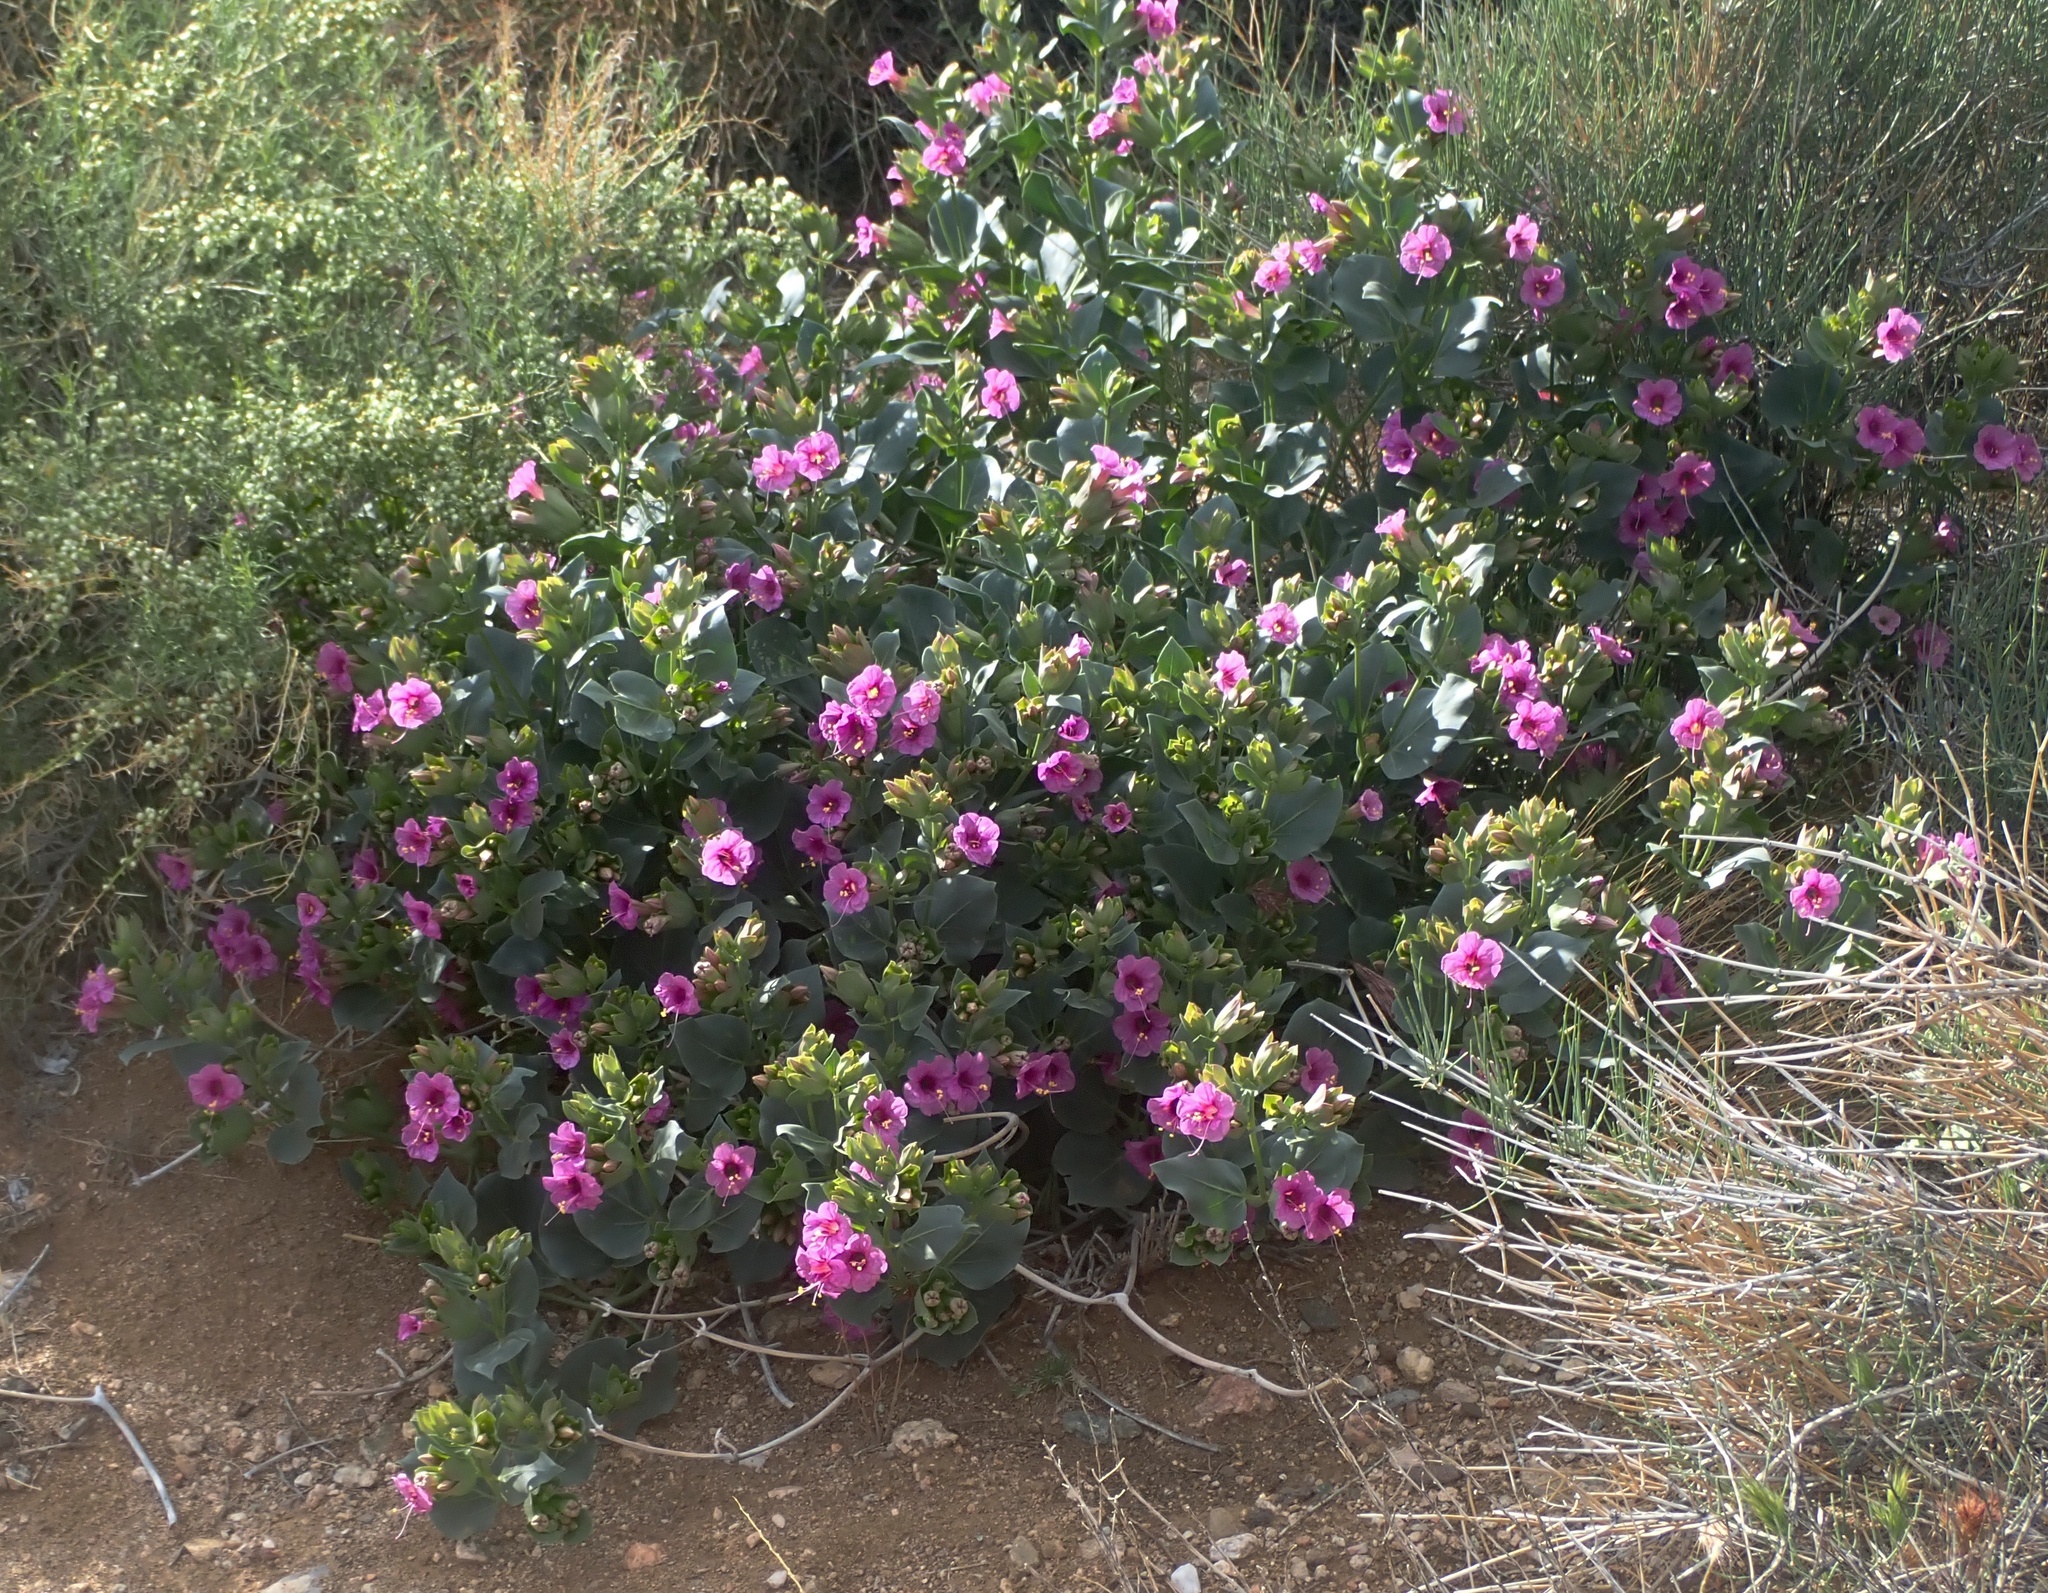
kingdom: Plantae
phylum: Tracheophyta
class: Magnoliopsida
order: Caryophyllales
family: Nyctaginaceae
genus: Mirabilis
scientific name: Mirabilis multiflora
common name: Froebel's four-o'clock
